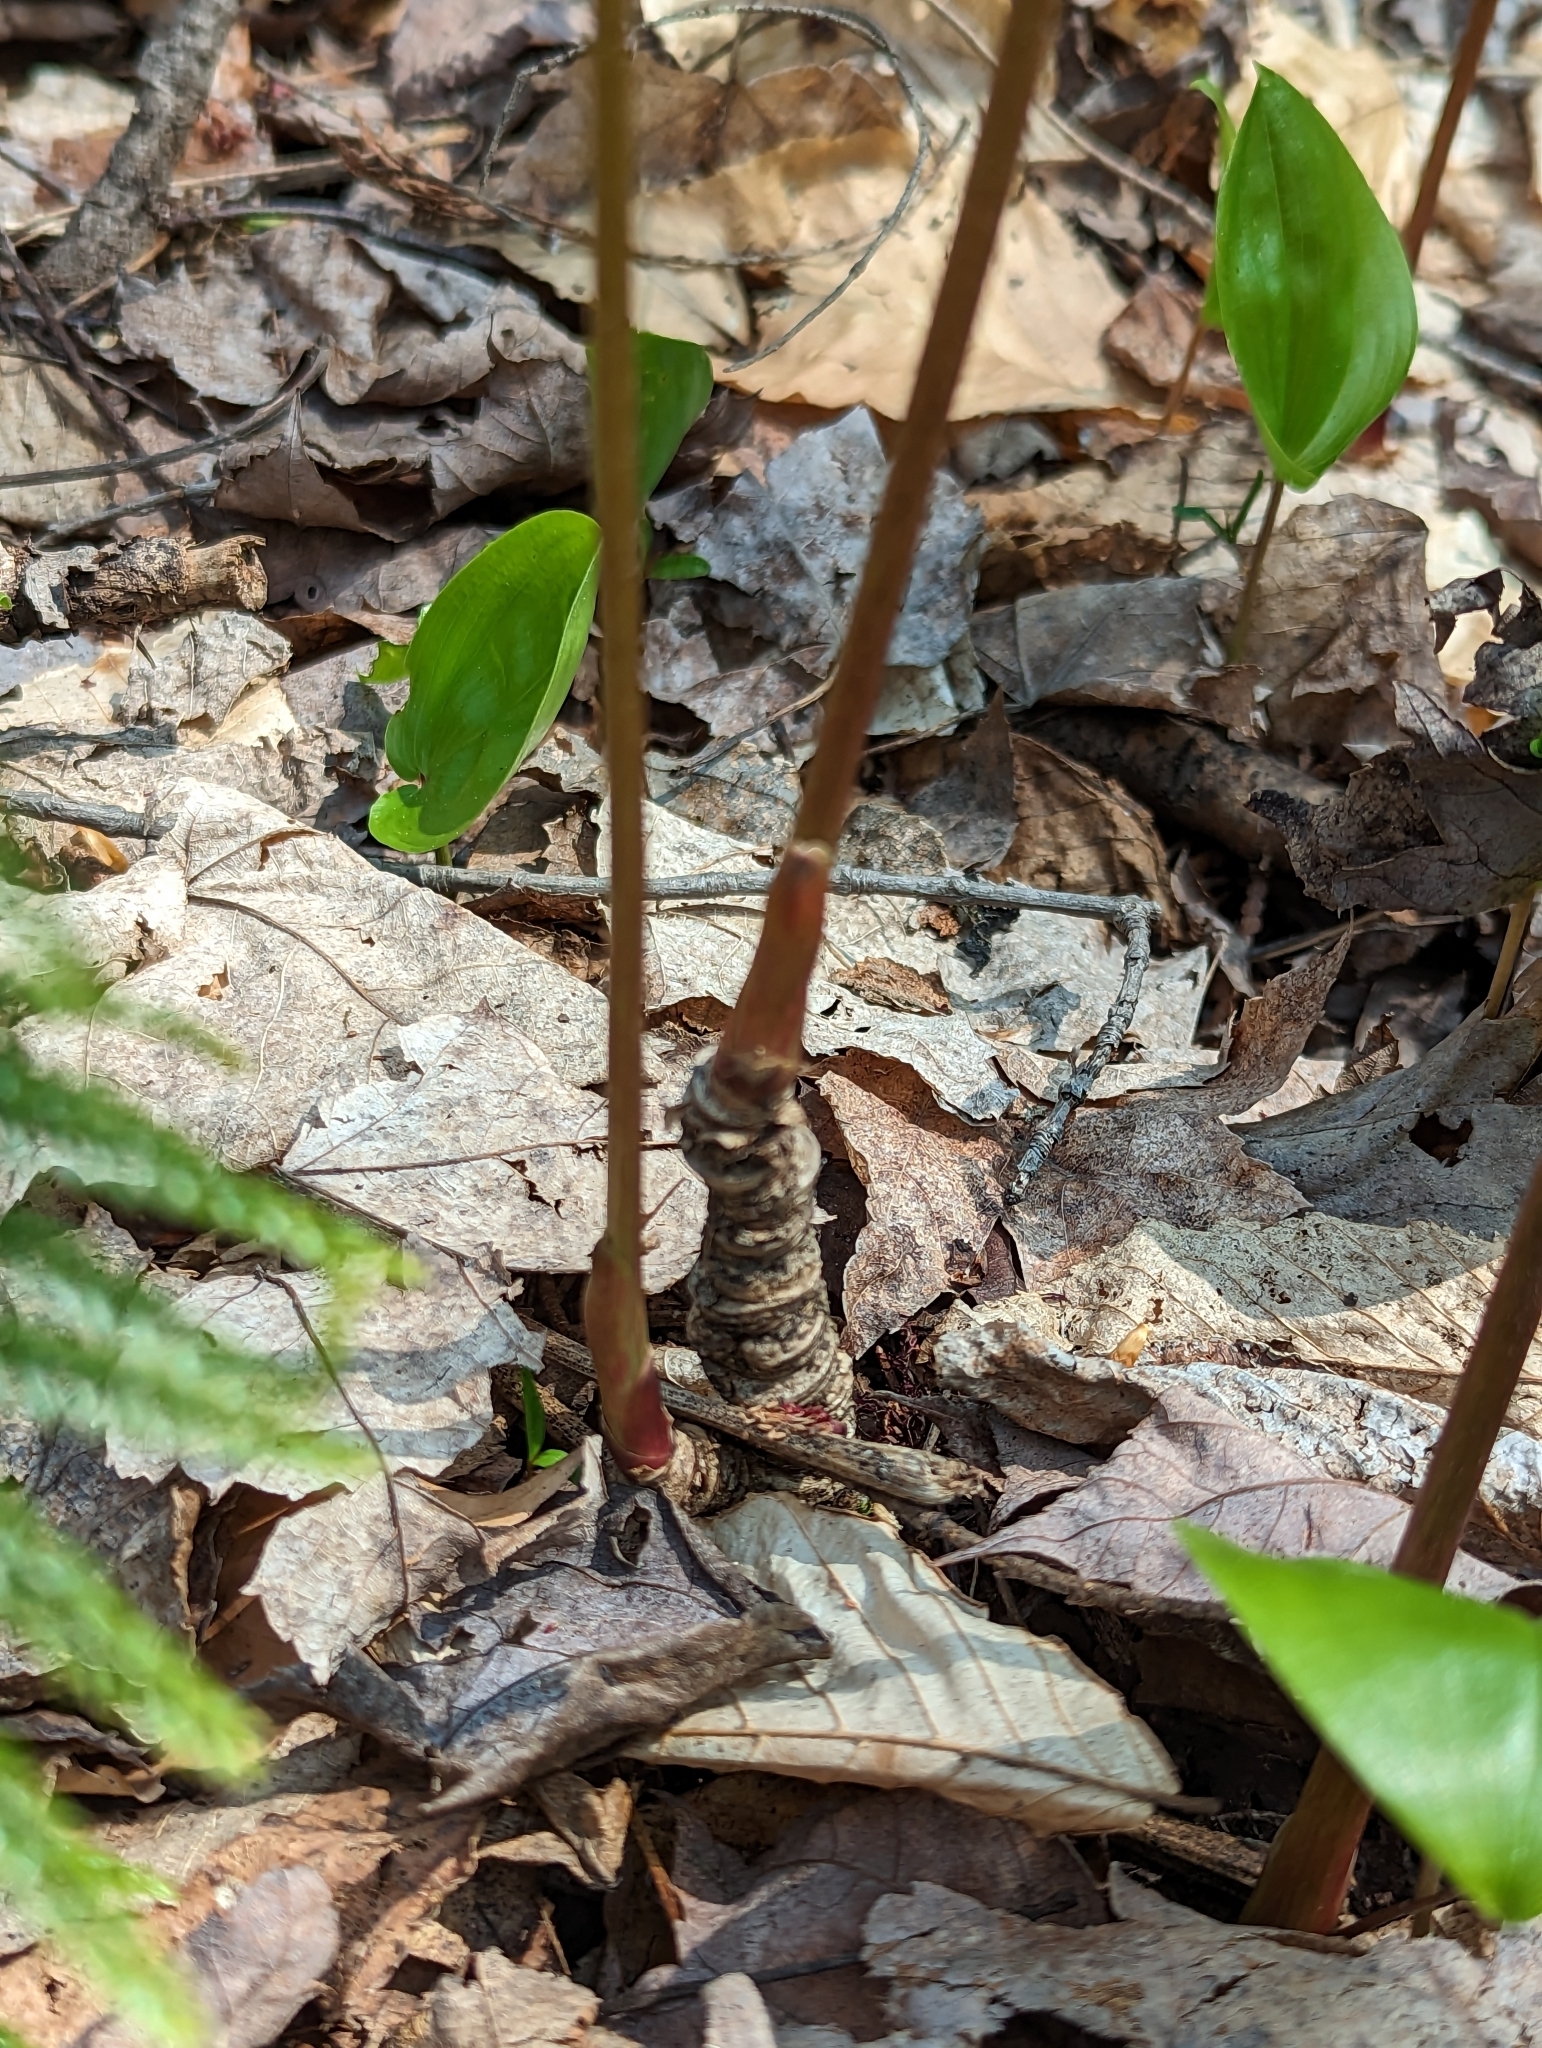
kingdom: Plantae
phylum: Tracheophyta
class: Magnoliopsida
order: Apiales
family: Araliaceae
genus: Aralia
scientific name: Aralia nudicaulis
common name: Wild sarsaparilla
